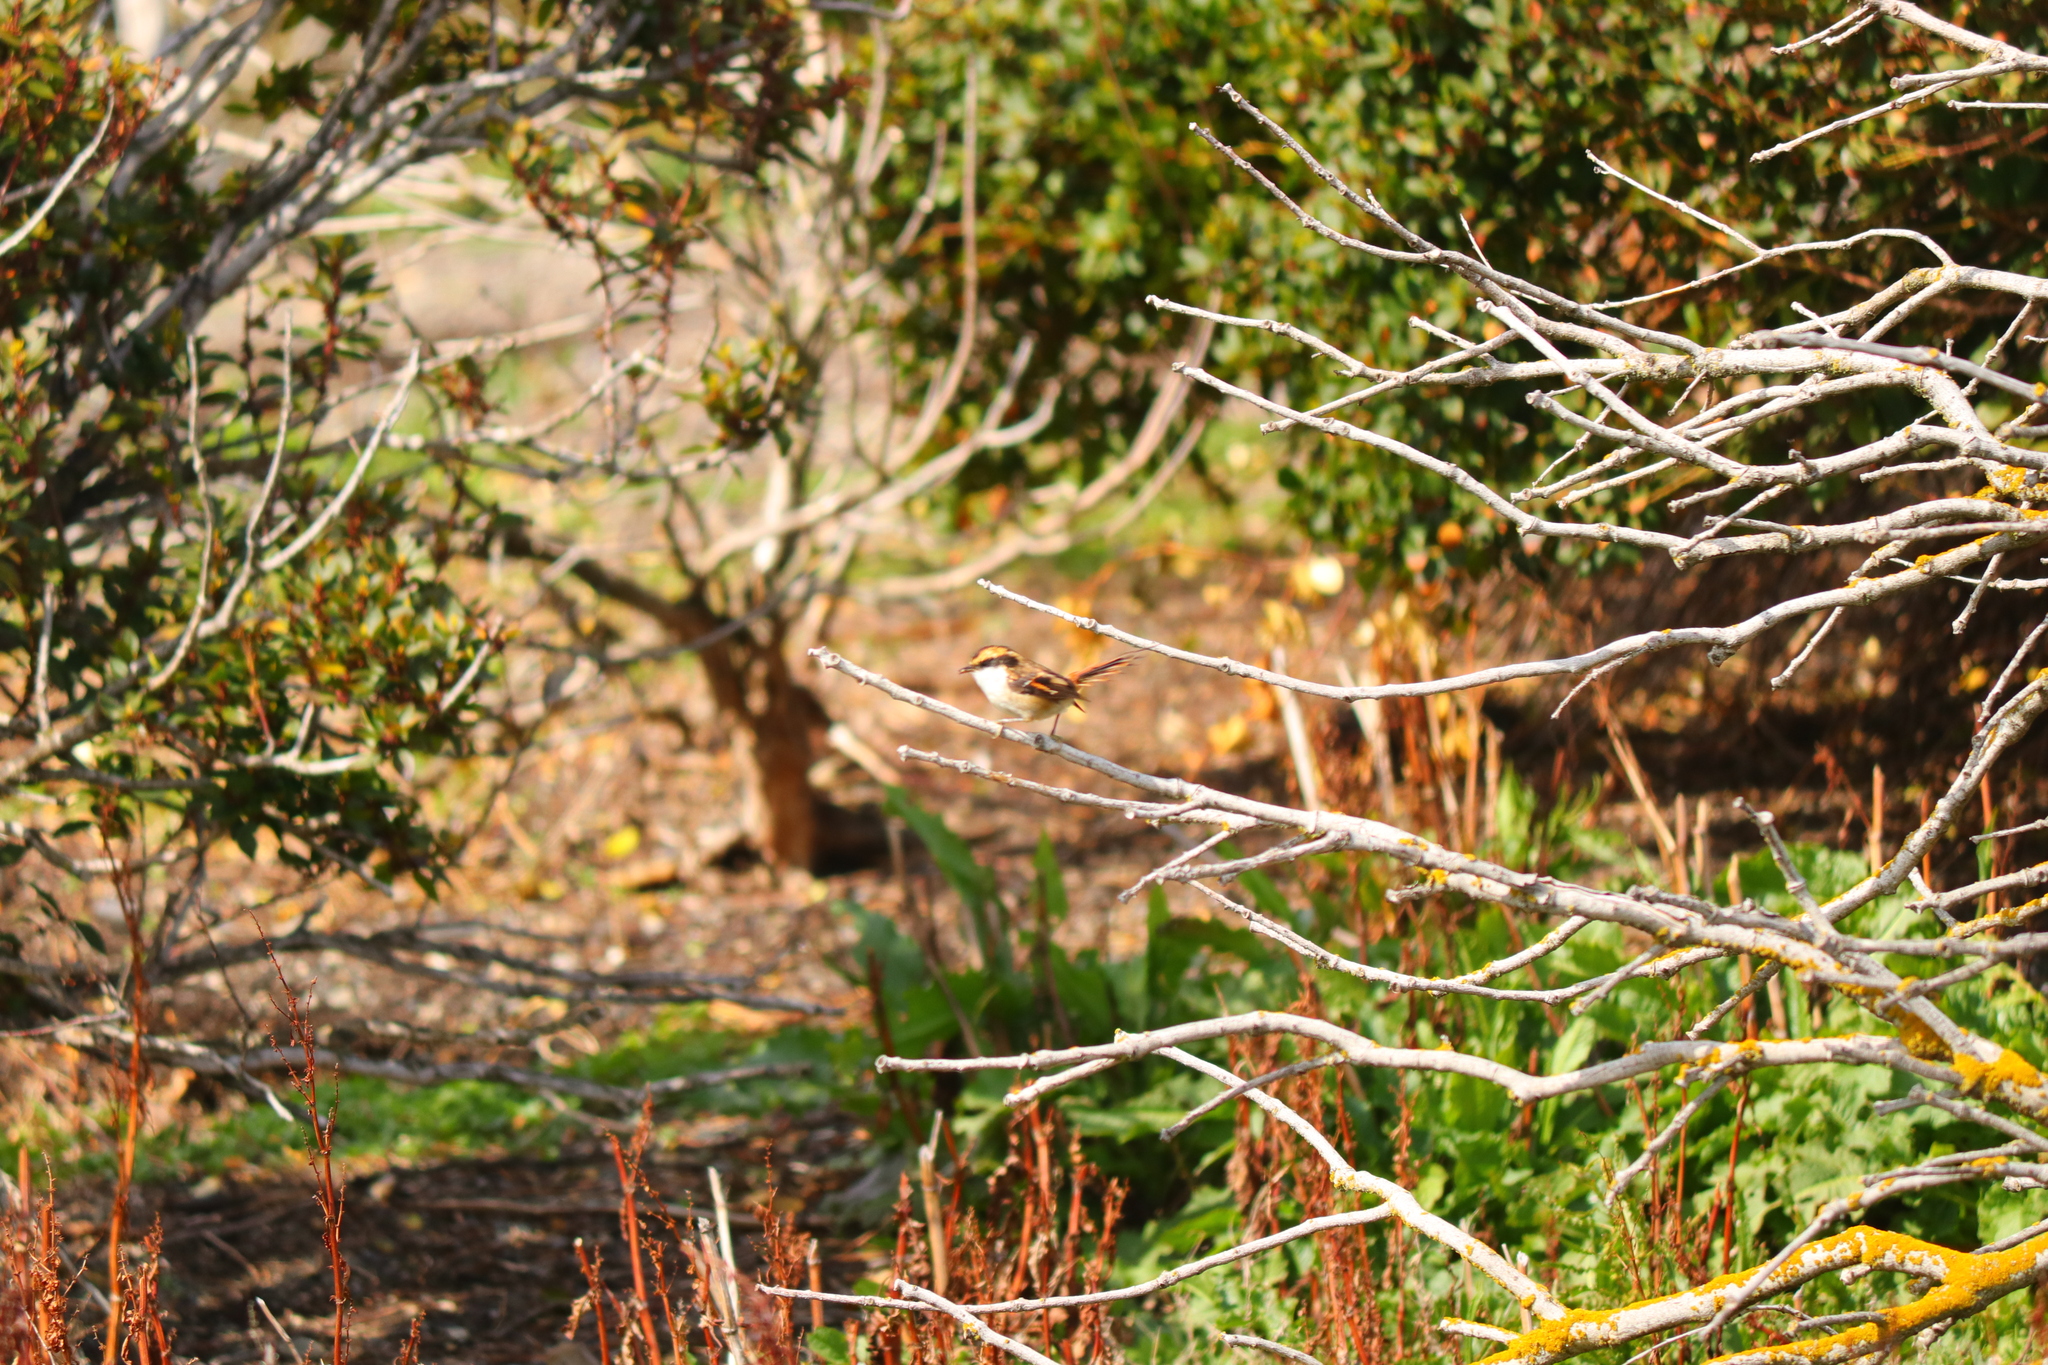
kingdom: Animalia
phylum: Chordata
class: Aves
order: Passeriformes
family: Furnariidae
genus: Aphrastura
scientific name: Aphrastura spinicauda
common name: Thorn-tailed rayadito
